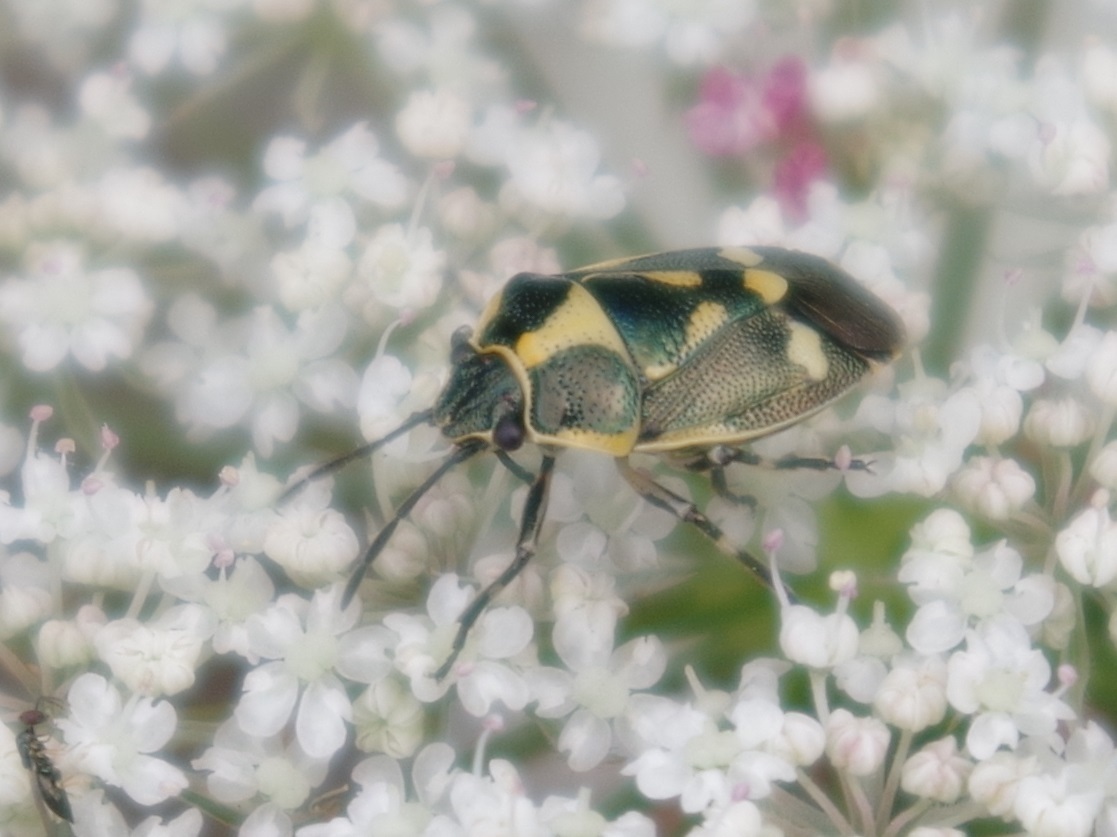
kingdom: Animalia
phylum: Arthropoda
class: Insecta
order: Hemiptera
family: Pentatomidae
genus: Eurydema
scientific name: Eurydema oleracea
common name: Cabbage bug
